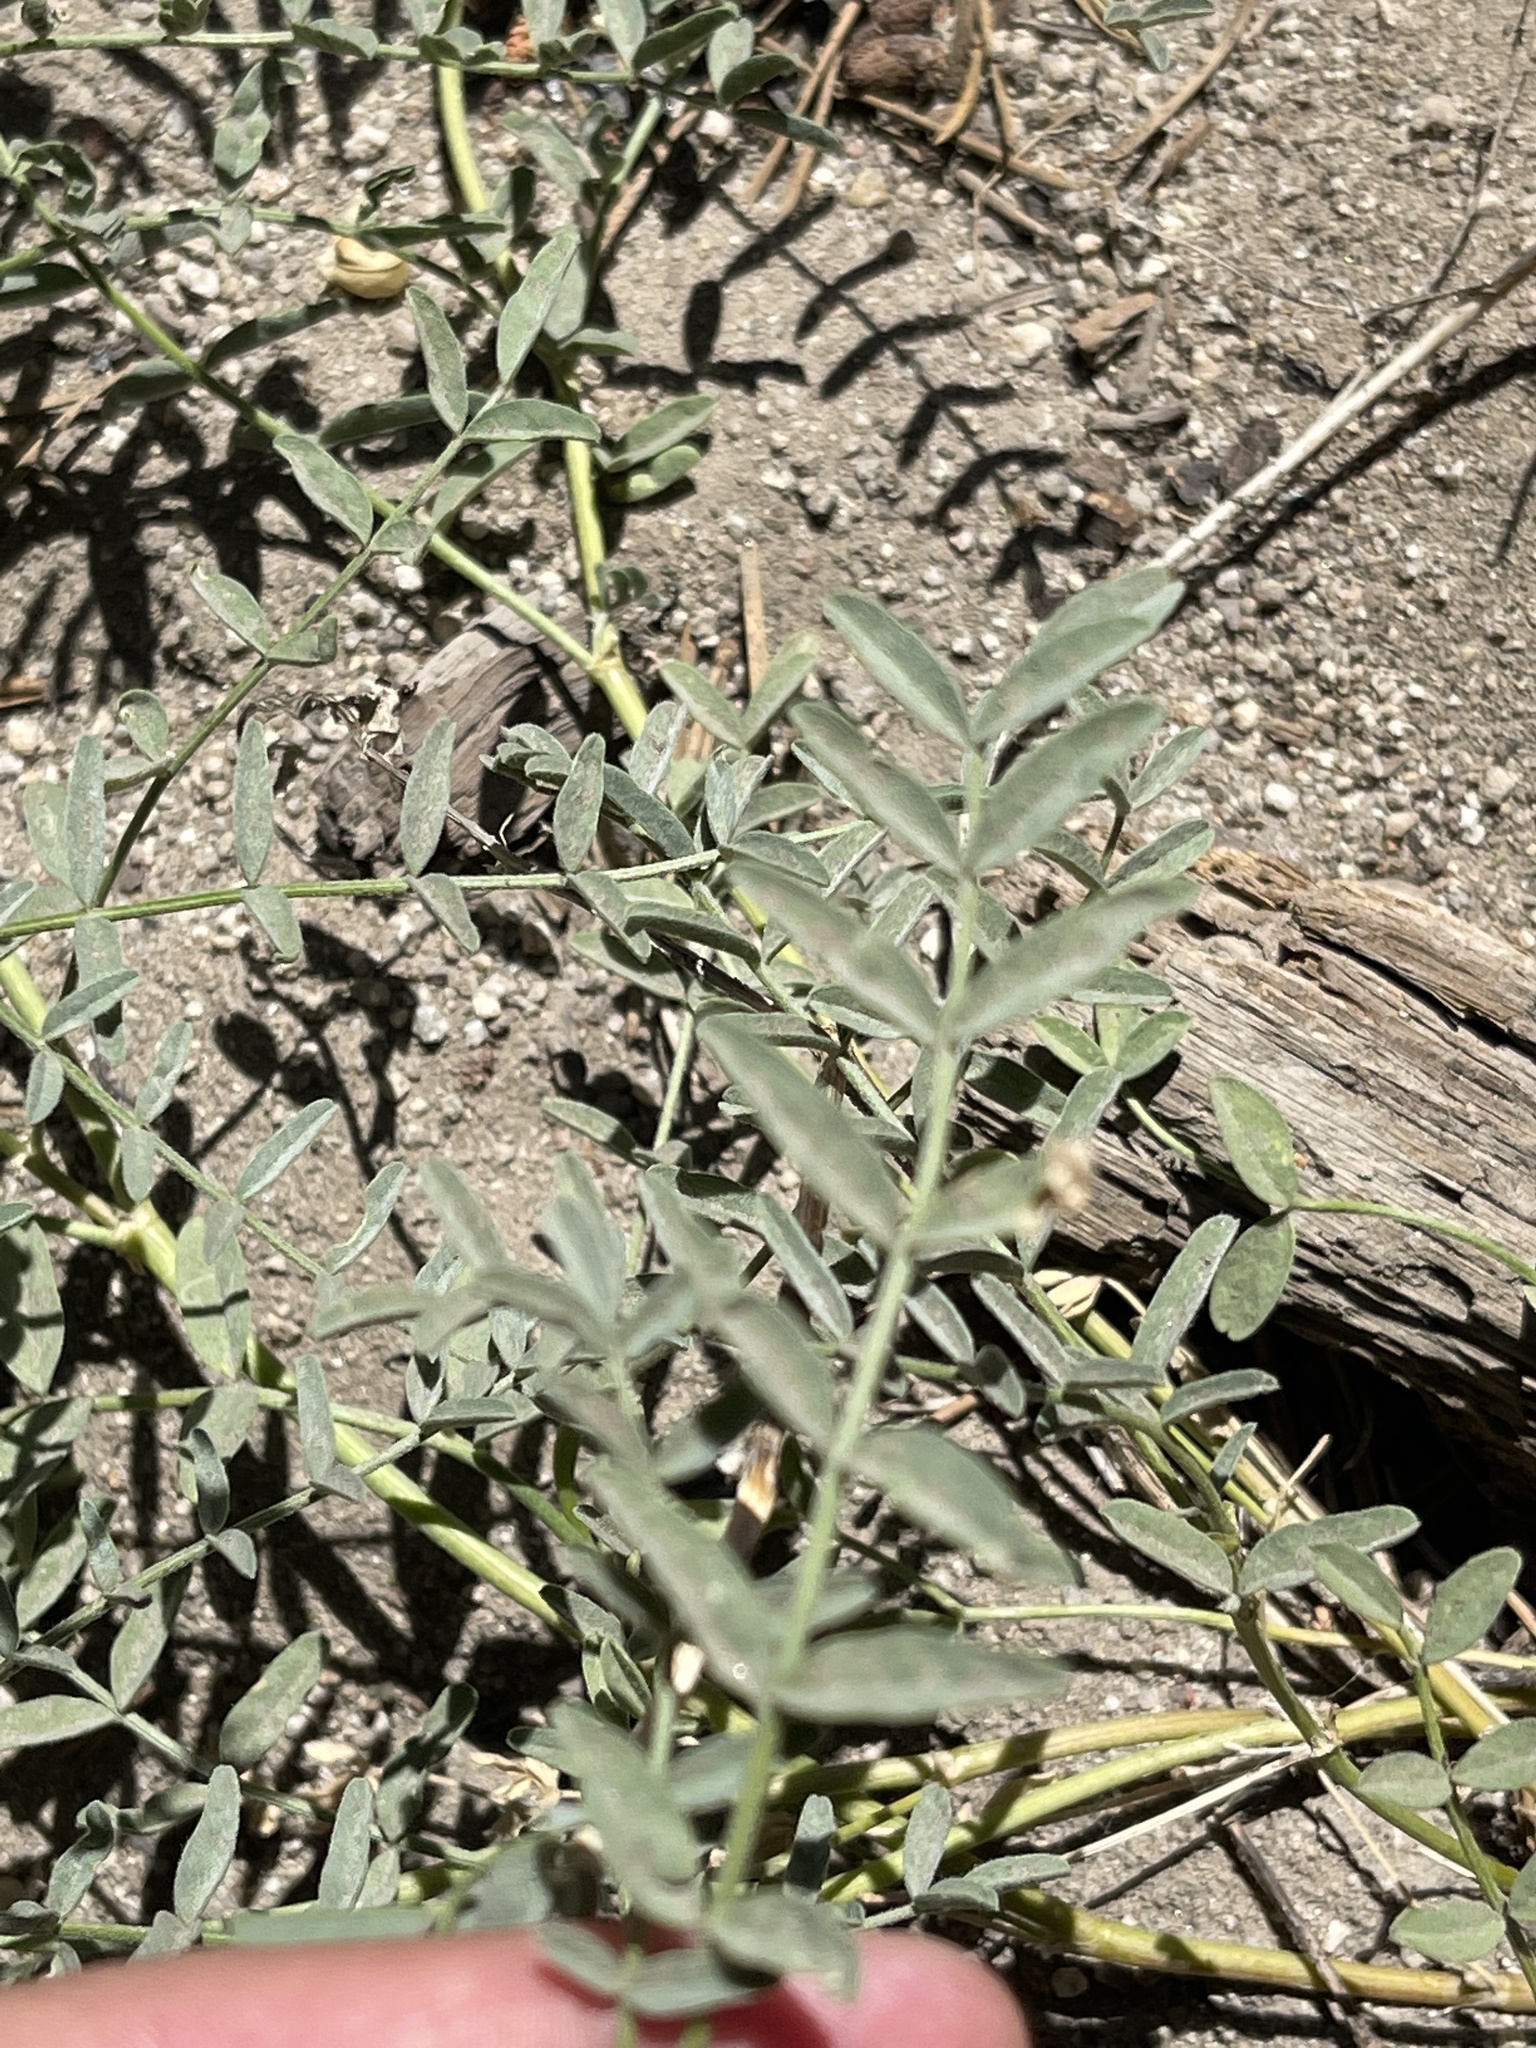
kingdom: Plantae
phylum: Tracheophyta
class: Magnoliopsida
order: Fabales
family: Fabaceae
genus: Astragalus
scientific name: Astragalus bolanderi
